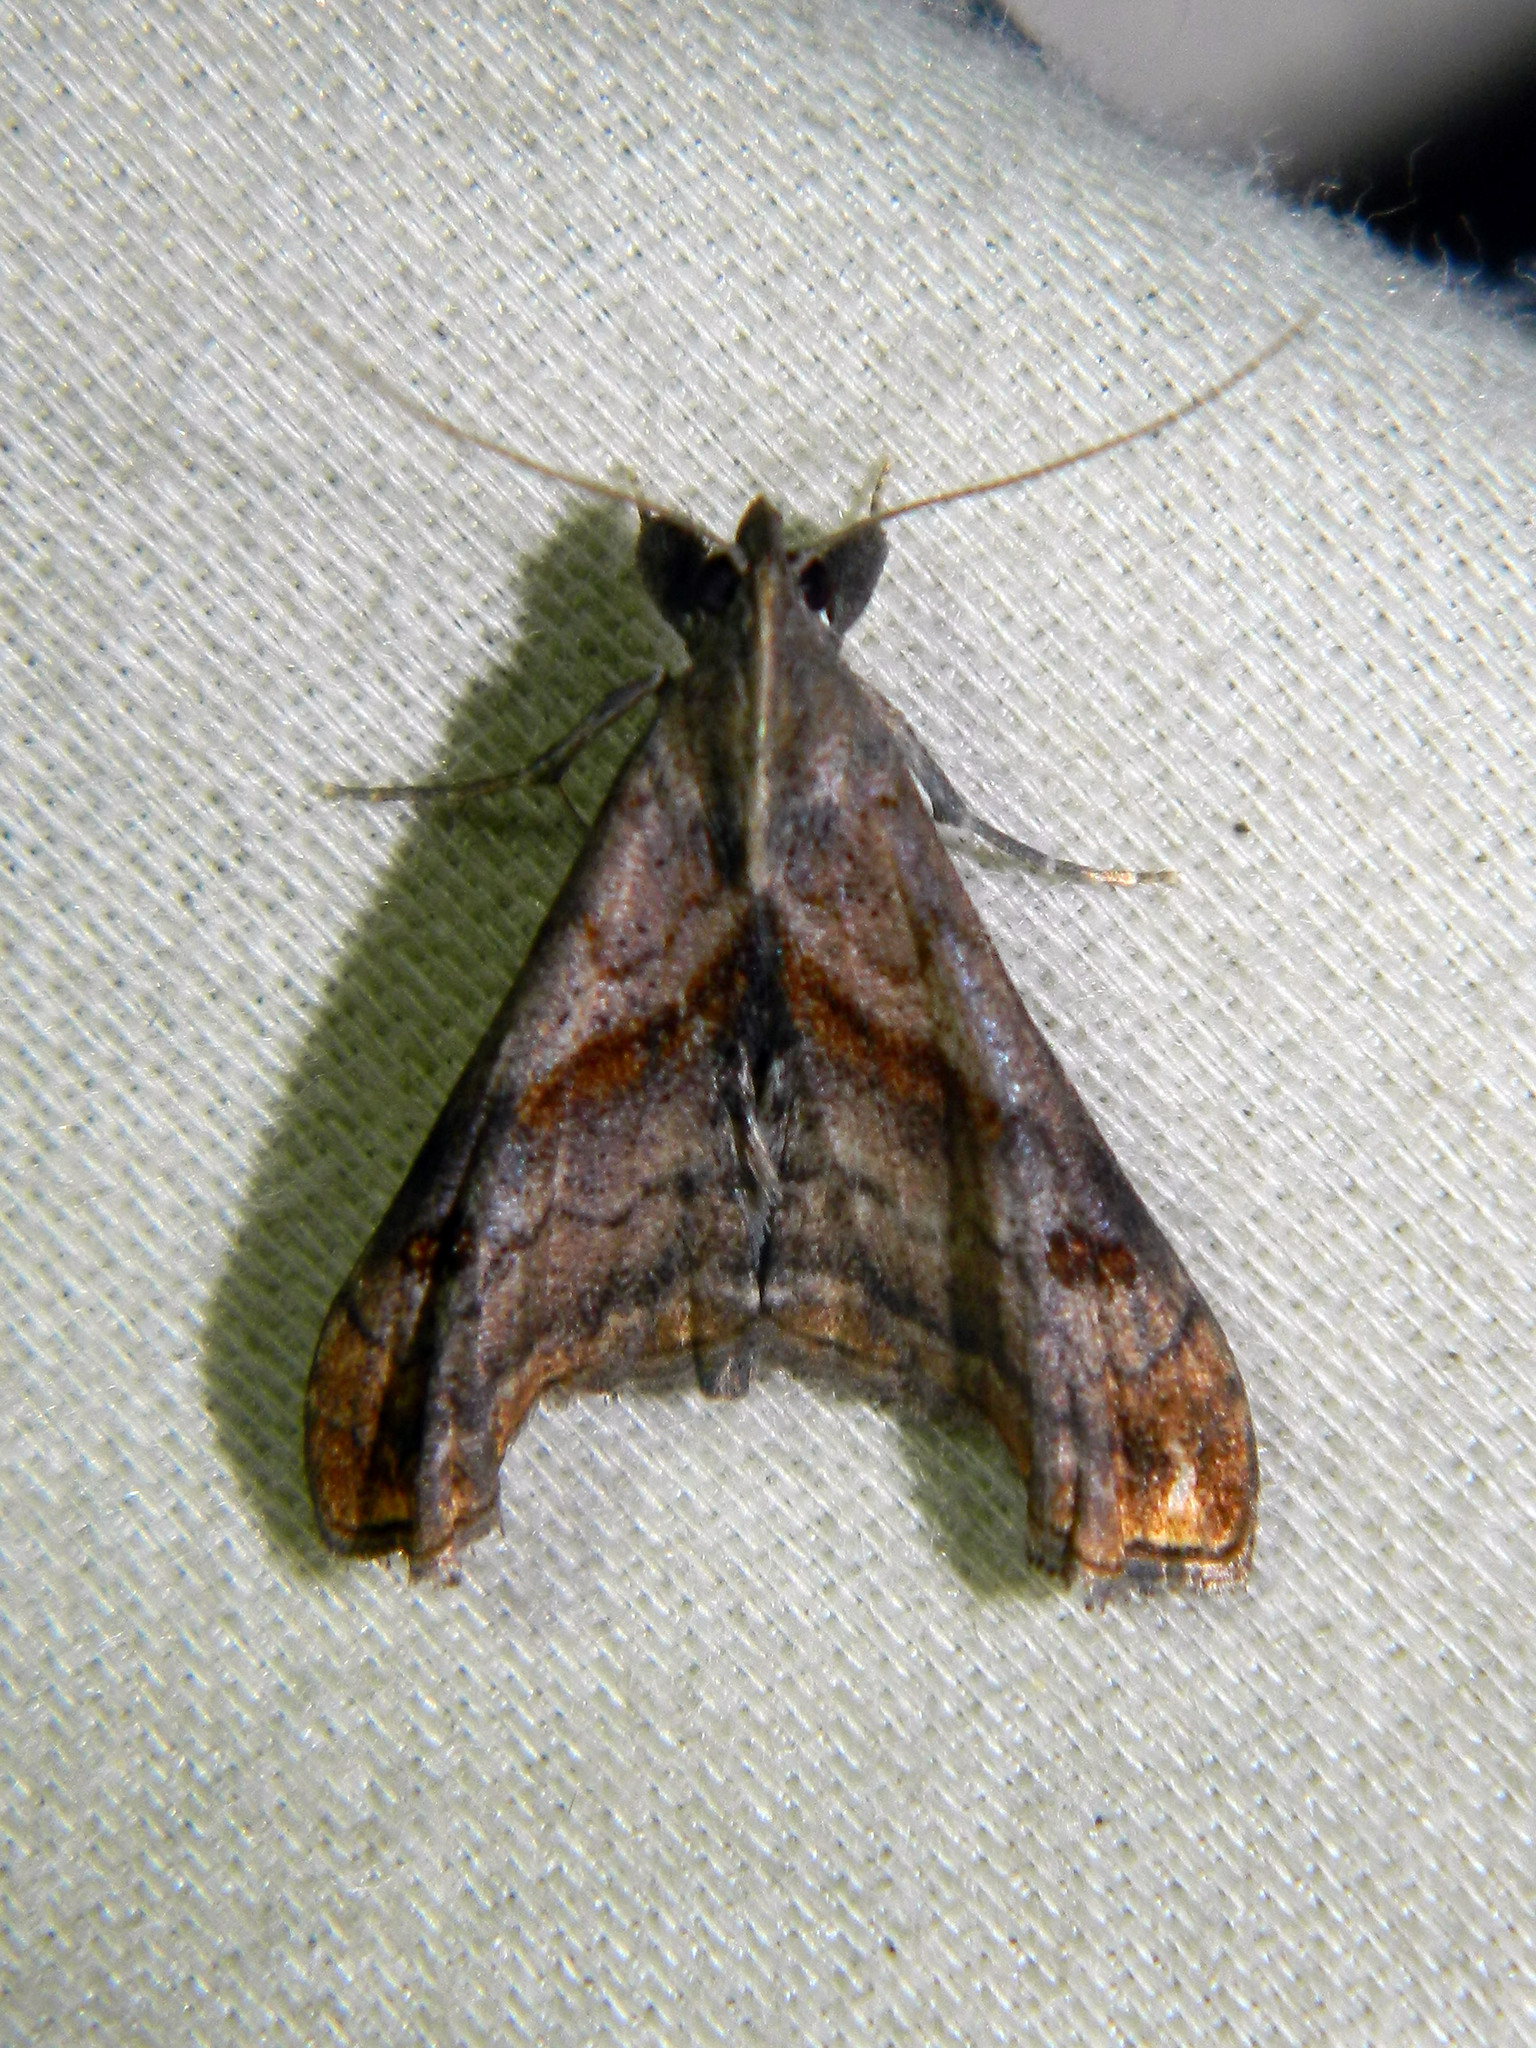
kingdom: Animalia
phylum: Arthropoda
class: Insecta
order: Lepidoptera
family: Erebidae
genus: Palthis
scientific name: Palthis angulalis
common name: Dark-spotted palthis moth
